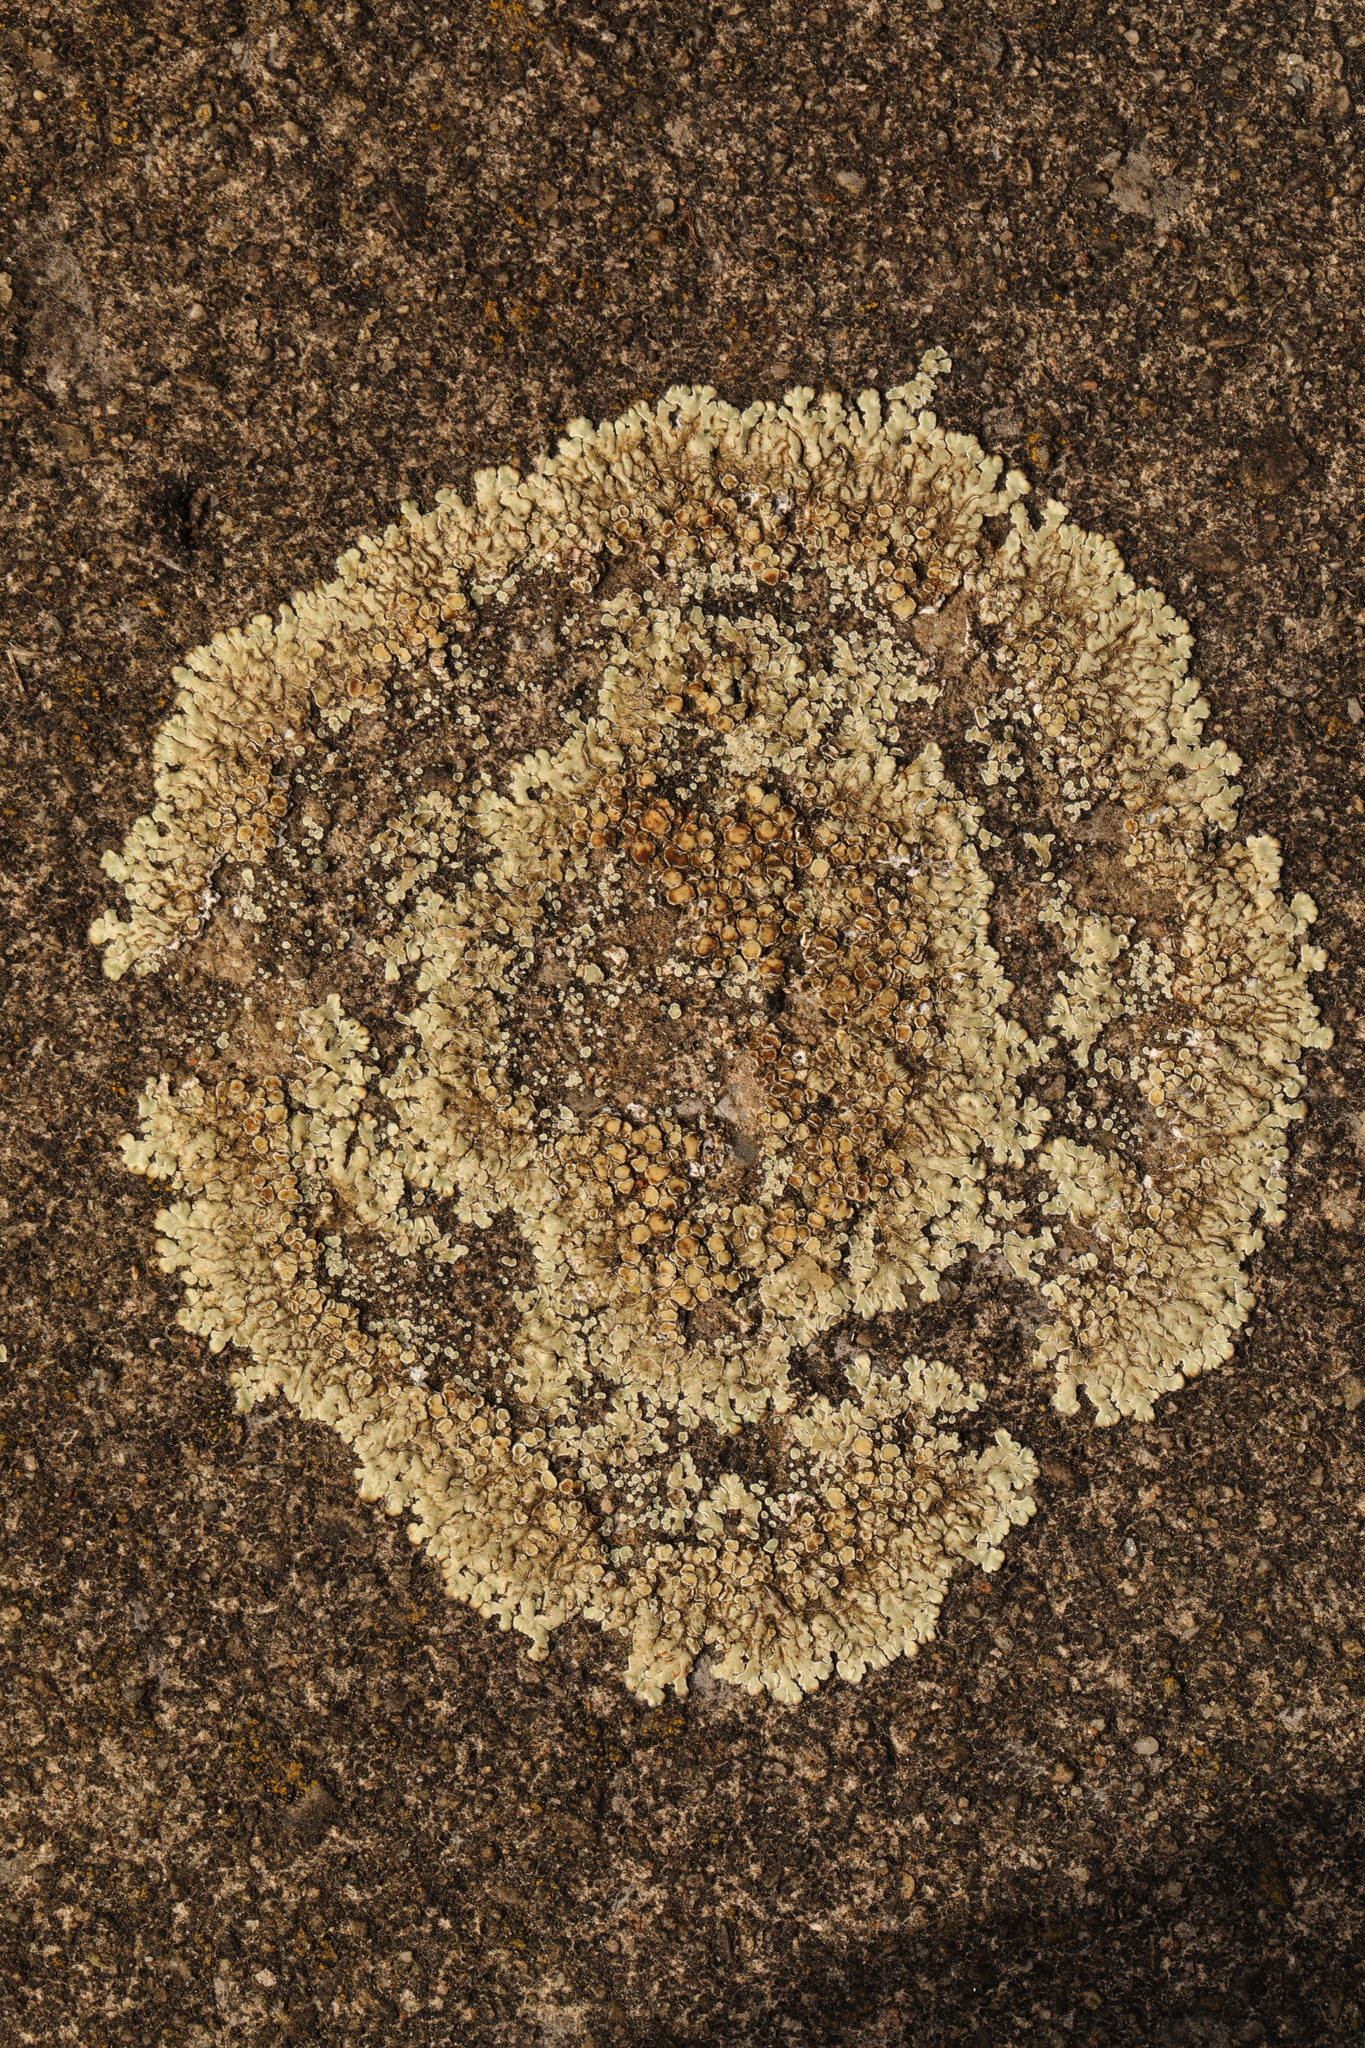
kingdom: Fungi
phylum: Ascomycota
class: Lecanoromycetes
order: Lecanorales
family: Lecanoraceae
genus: Protoparmeliopsis
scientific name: Protoparmeliopsis muralis
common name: Stonewall rim lichen
